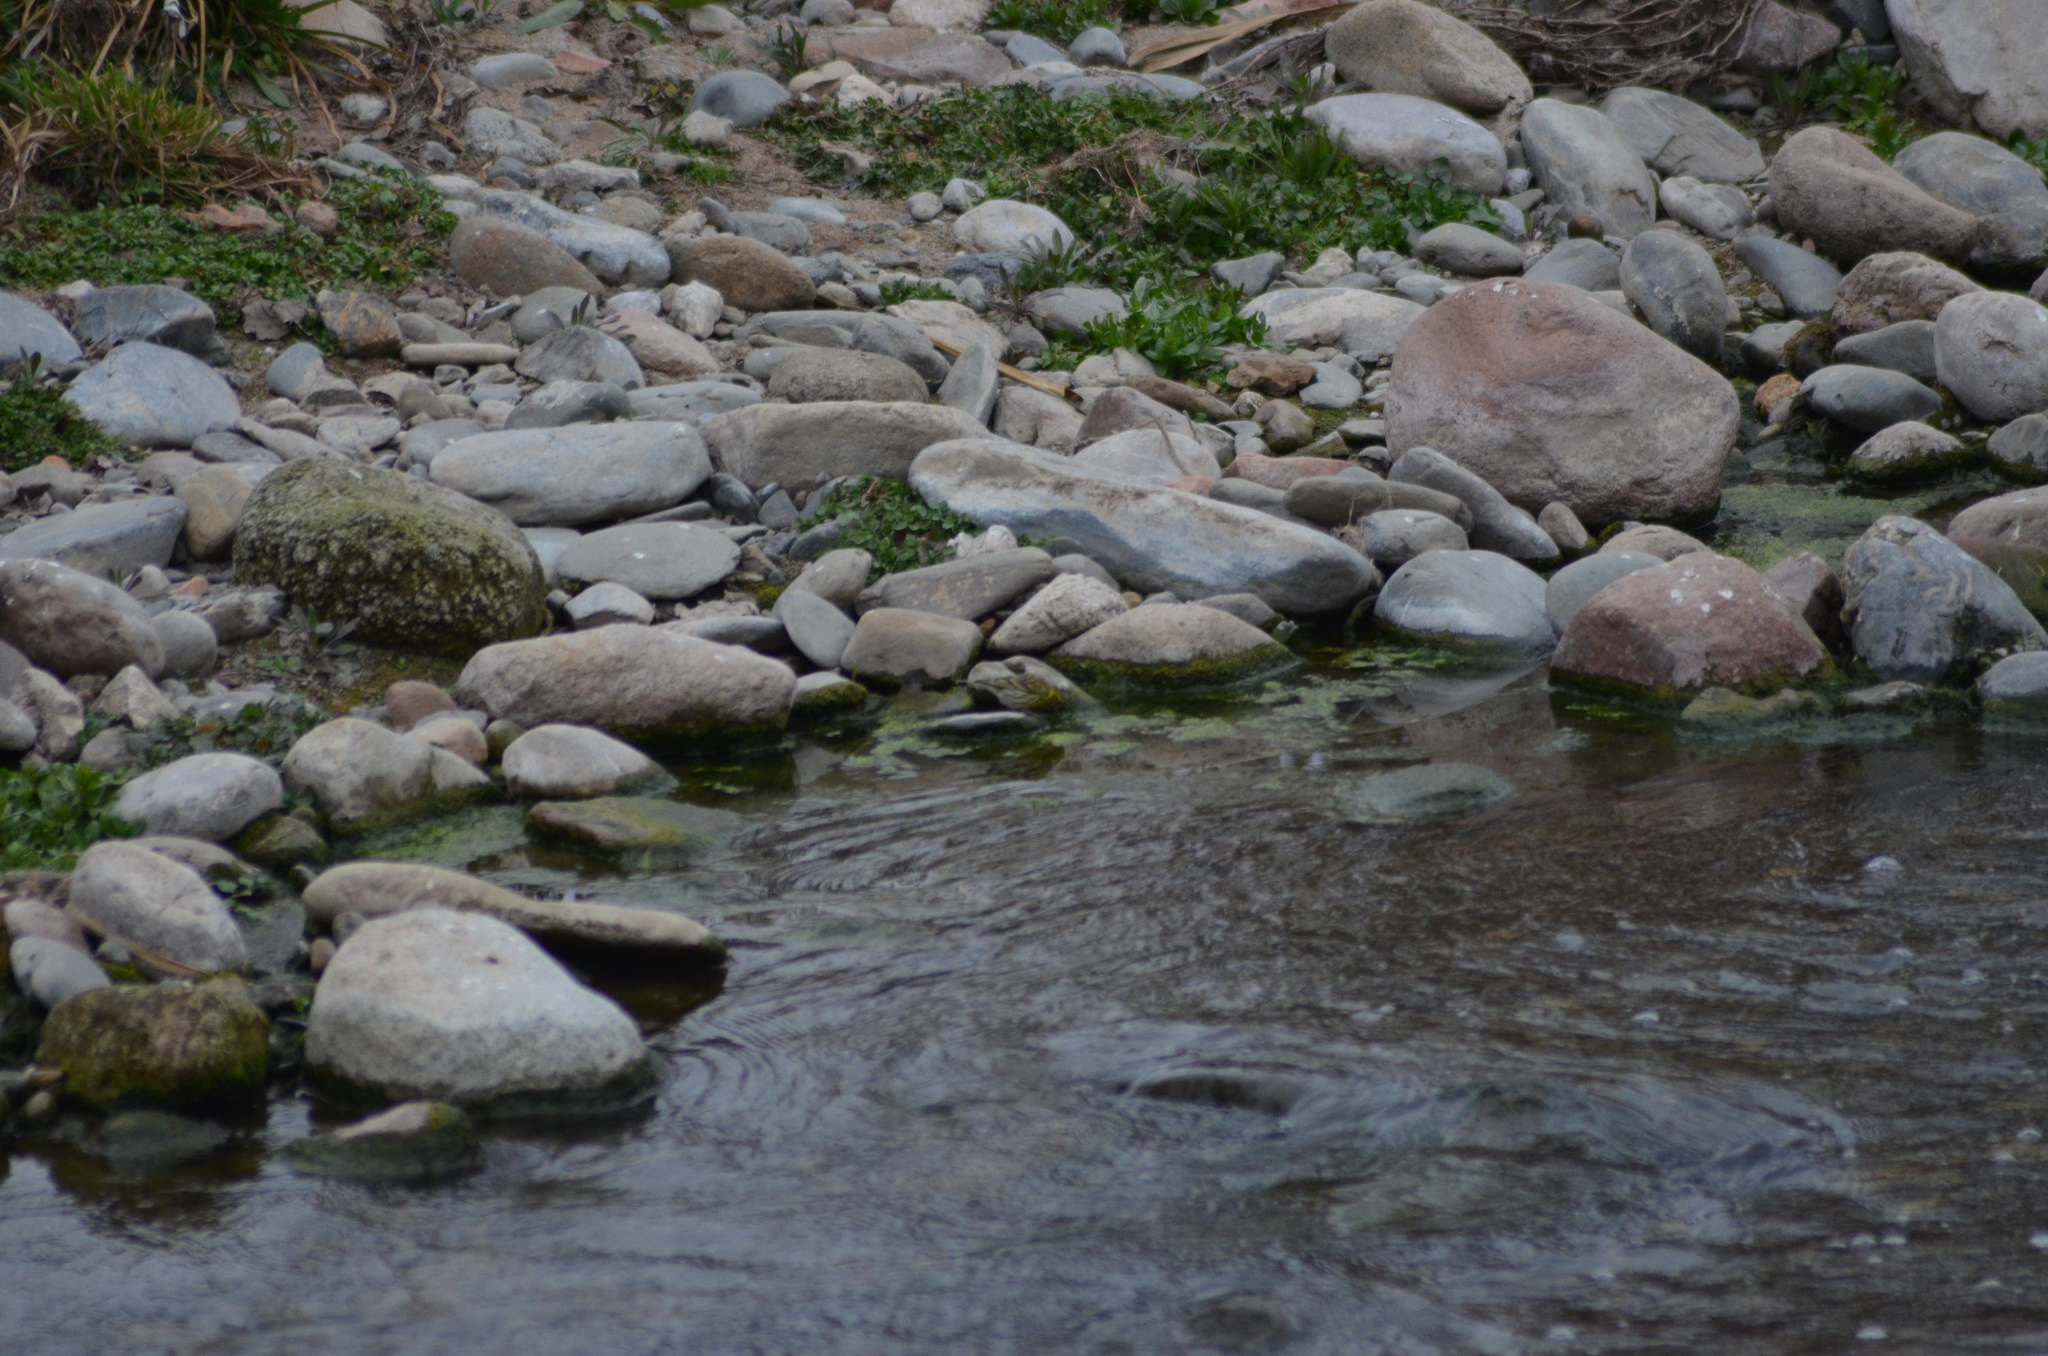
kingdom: Animalia
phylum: Chordata
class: Aves
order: Passeriformes
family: Fringillidae
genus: Serinus
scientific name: Serinus serinus
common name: European serin
